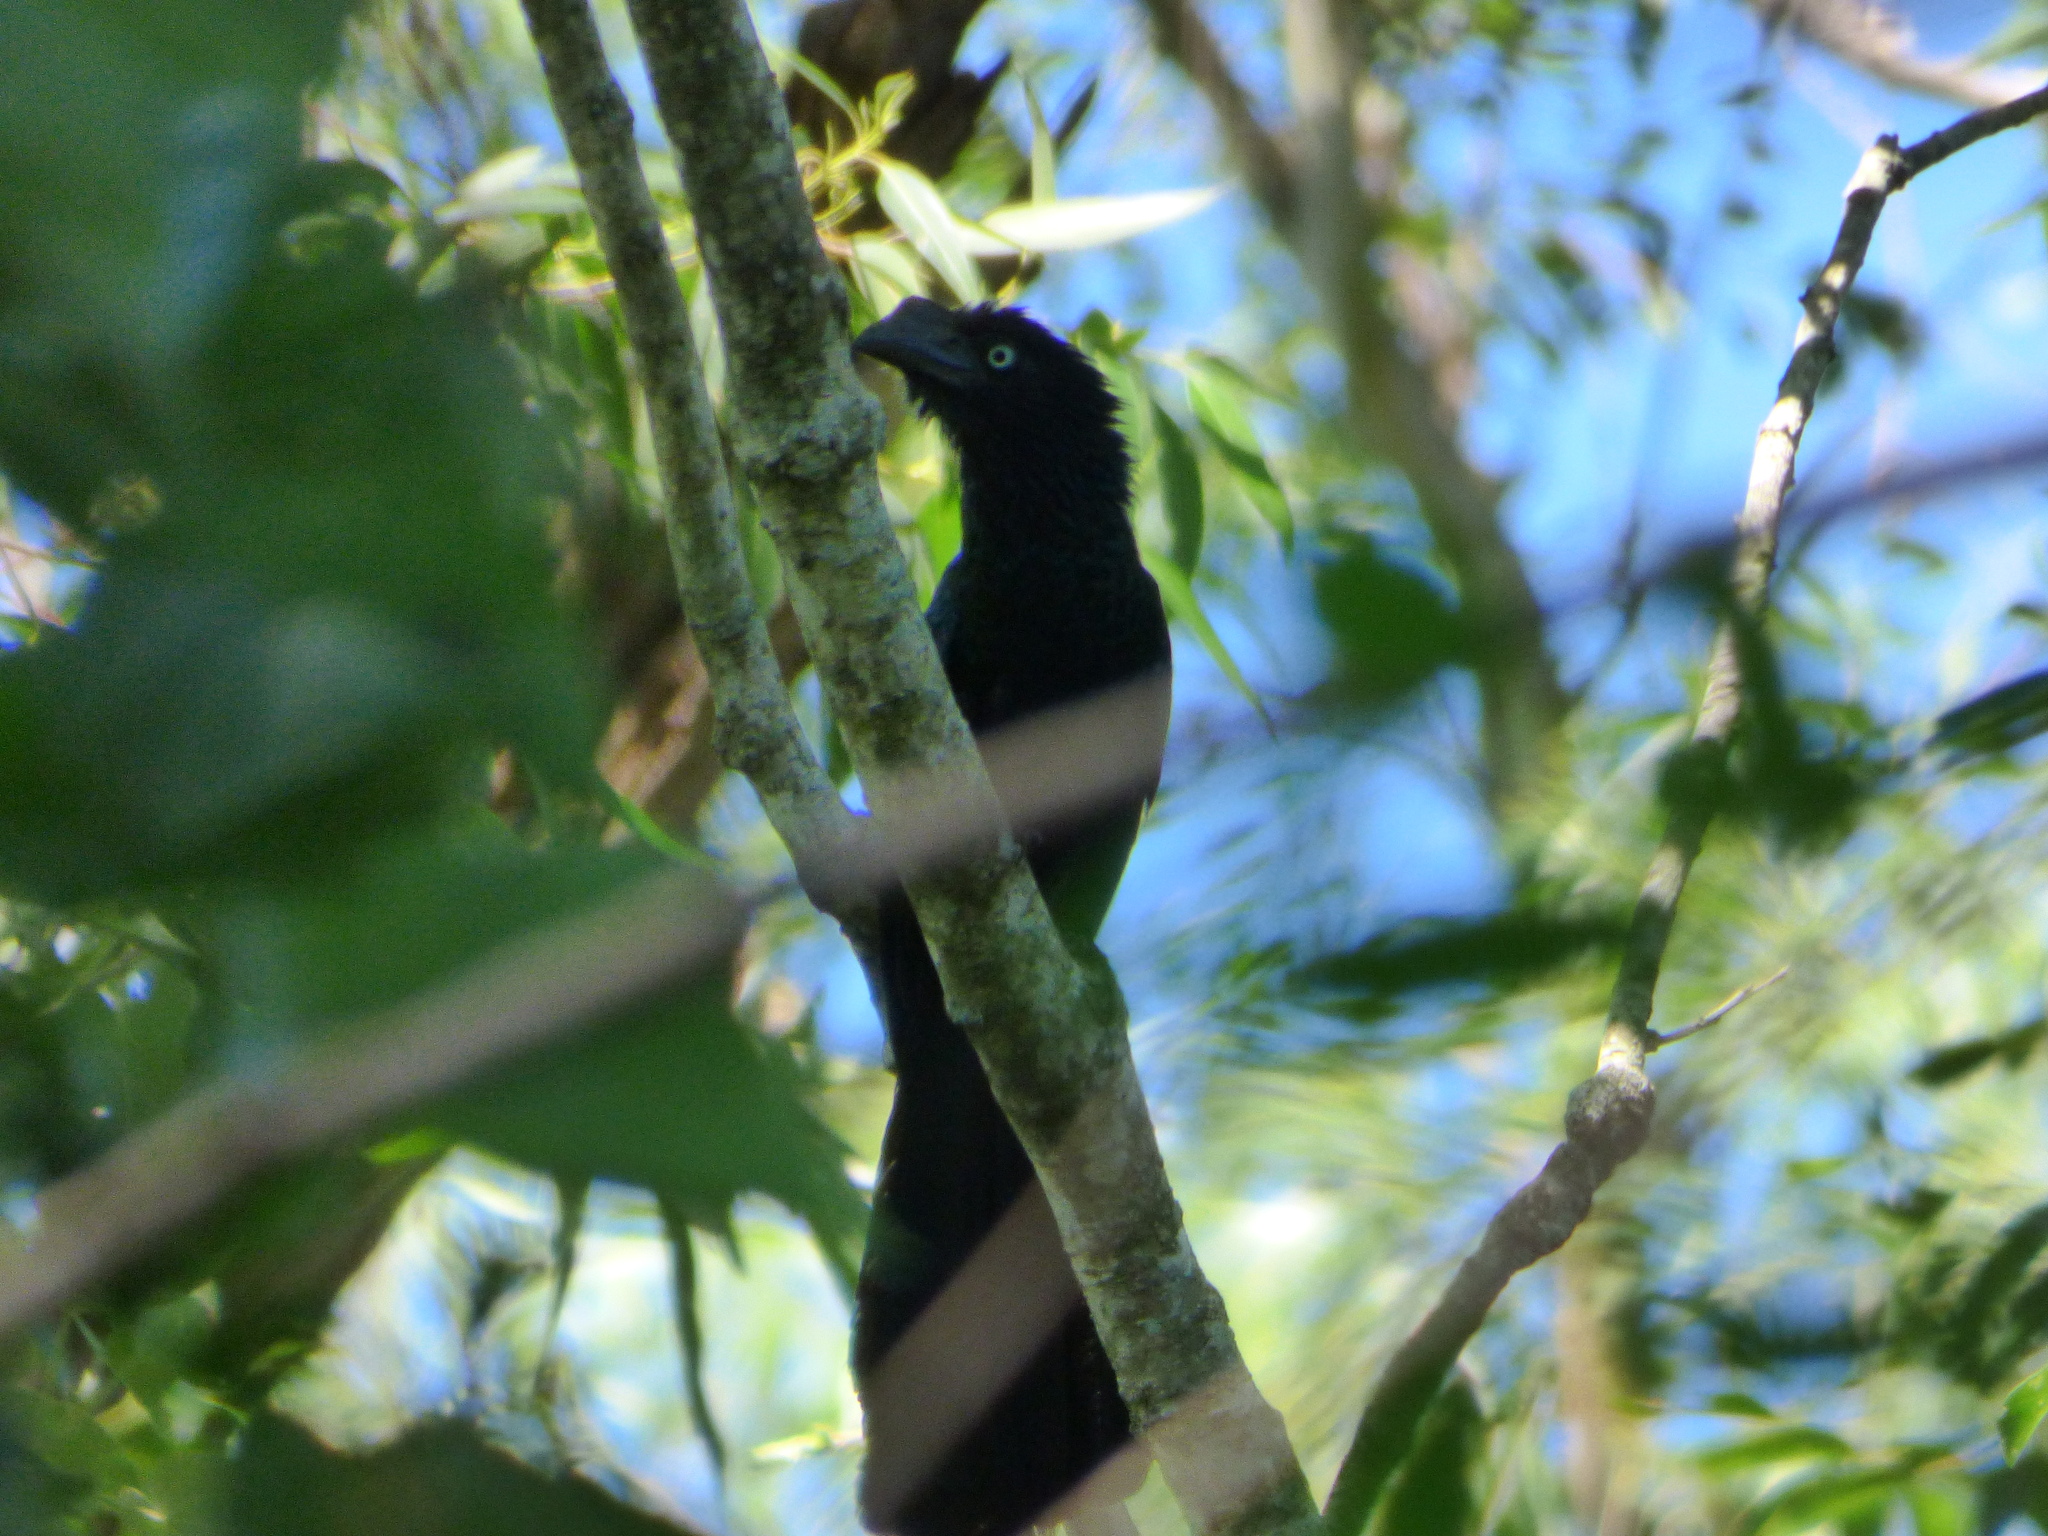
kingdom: Animalia
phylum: Chordata
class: Aves
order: Cuculiformes
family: Cuculidae
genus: Crotophaga
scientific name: Crotophaga major
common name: Greater ani
